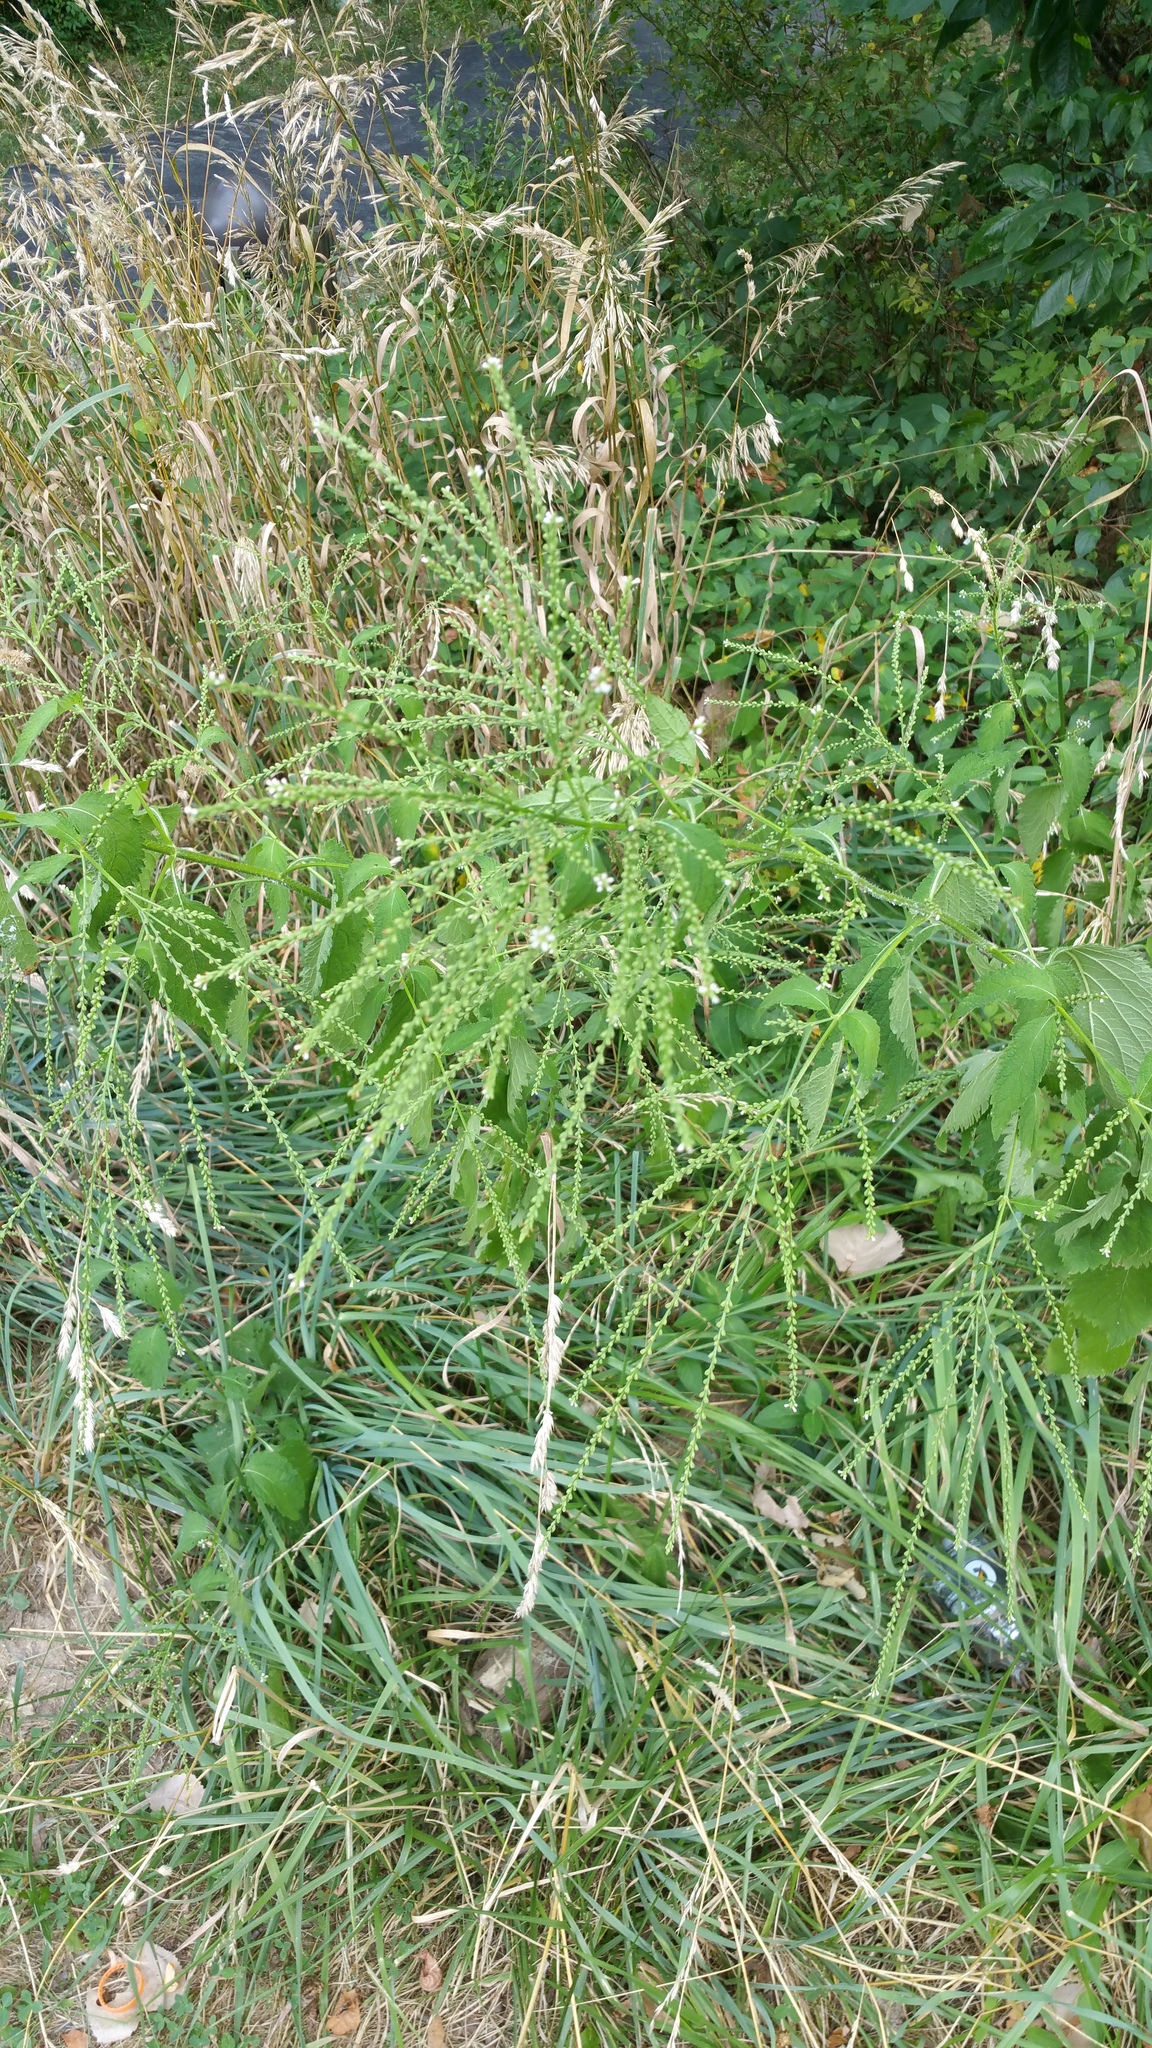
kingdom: Plantae
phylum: Tracheophyta
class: Magnoliopsida
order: Lamiales
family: Verbenaceae
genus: Verbena
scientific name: Verbena urticifolia
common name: Nettle-leaved vervain
